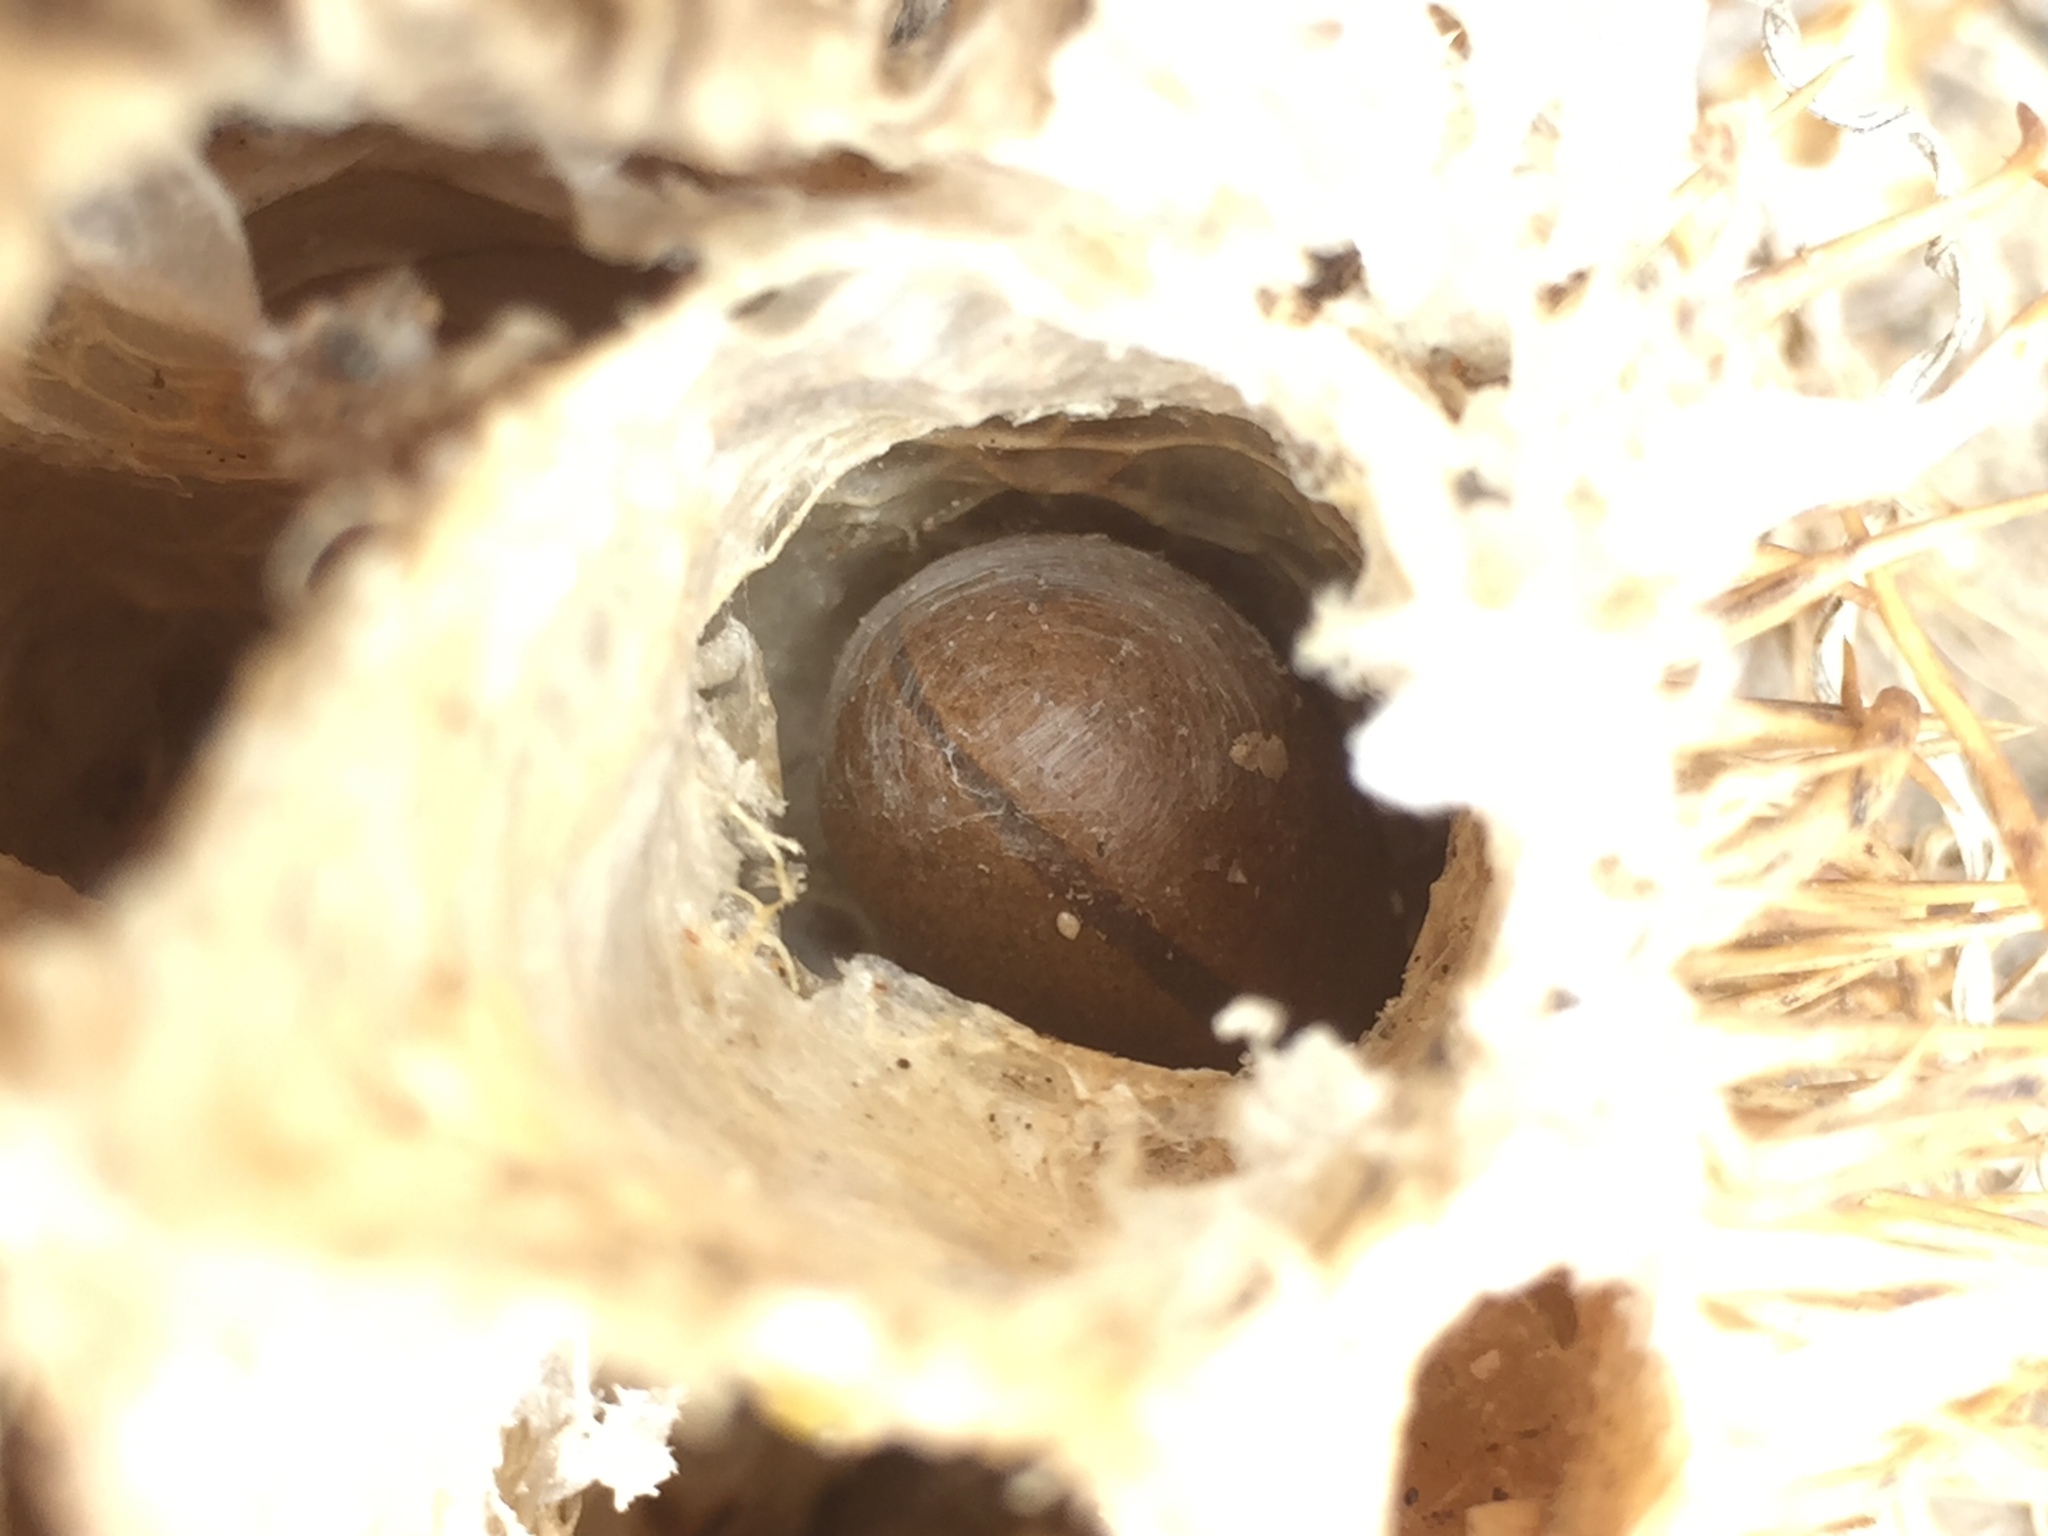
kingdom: Plantae
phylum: Tracheophyta
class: Magnoliopsida
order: Cucurbitales
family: Cucurbitaceae
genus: Marah
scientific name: Marah macrocarpa
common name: Cucamonga manroot
